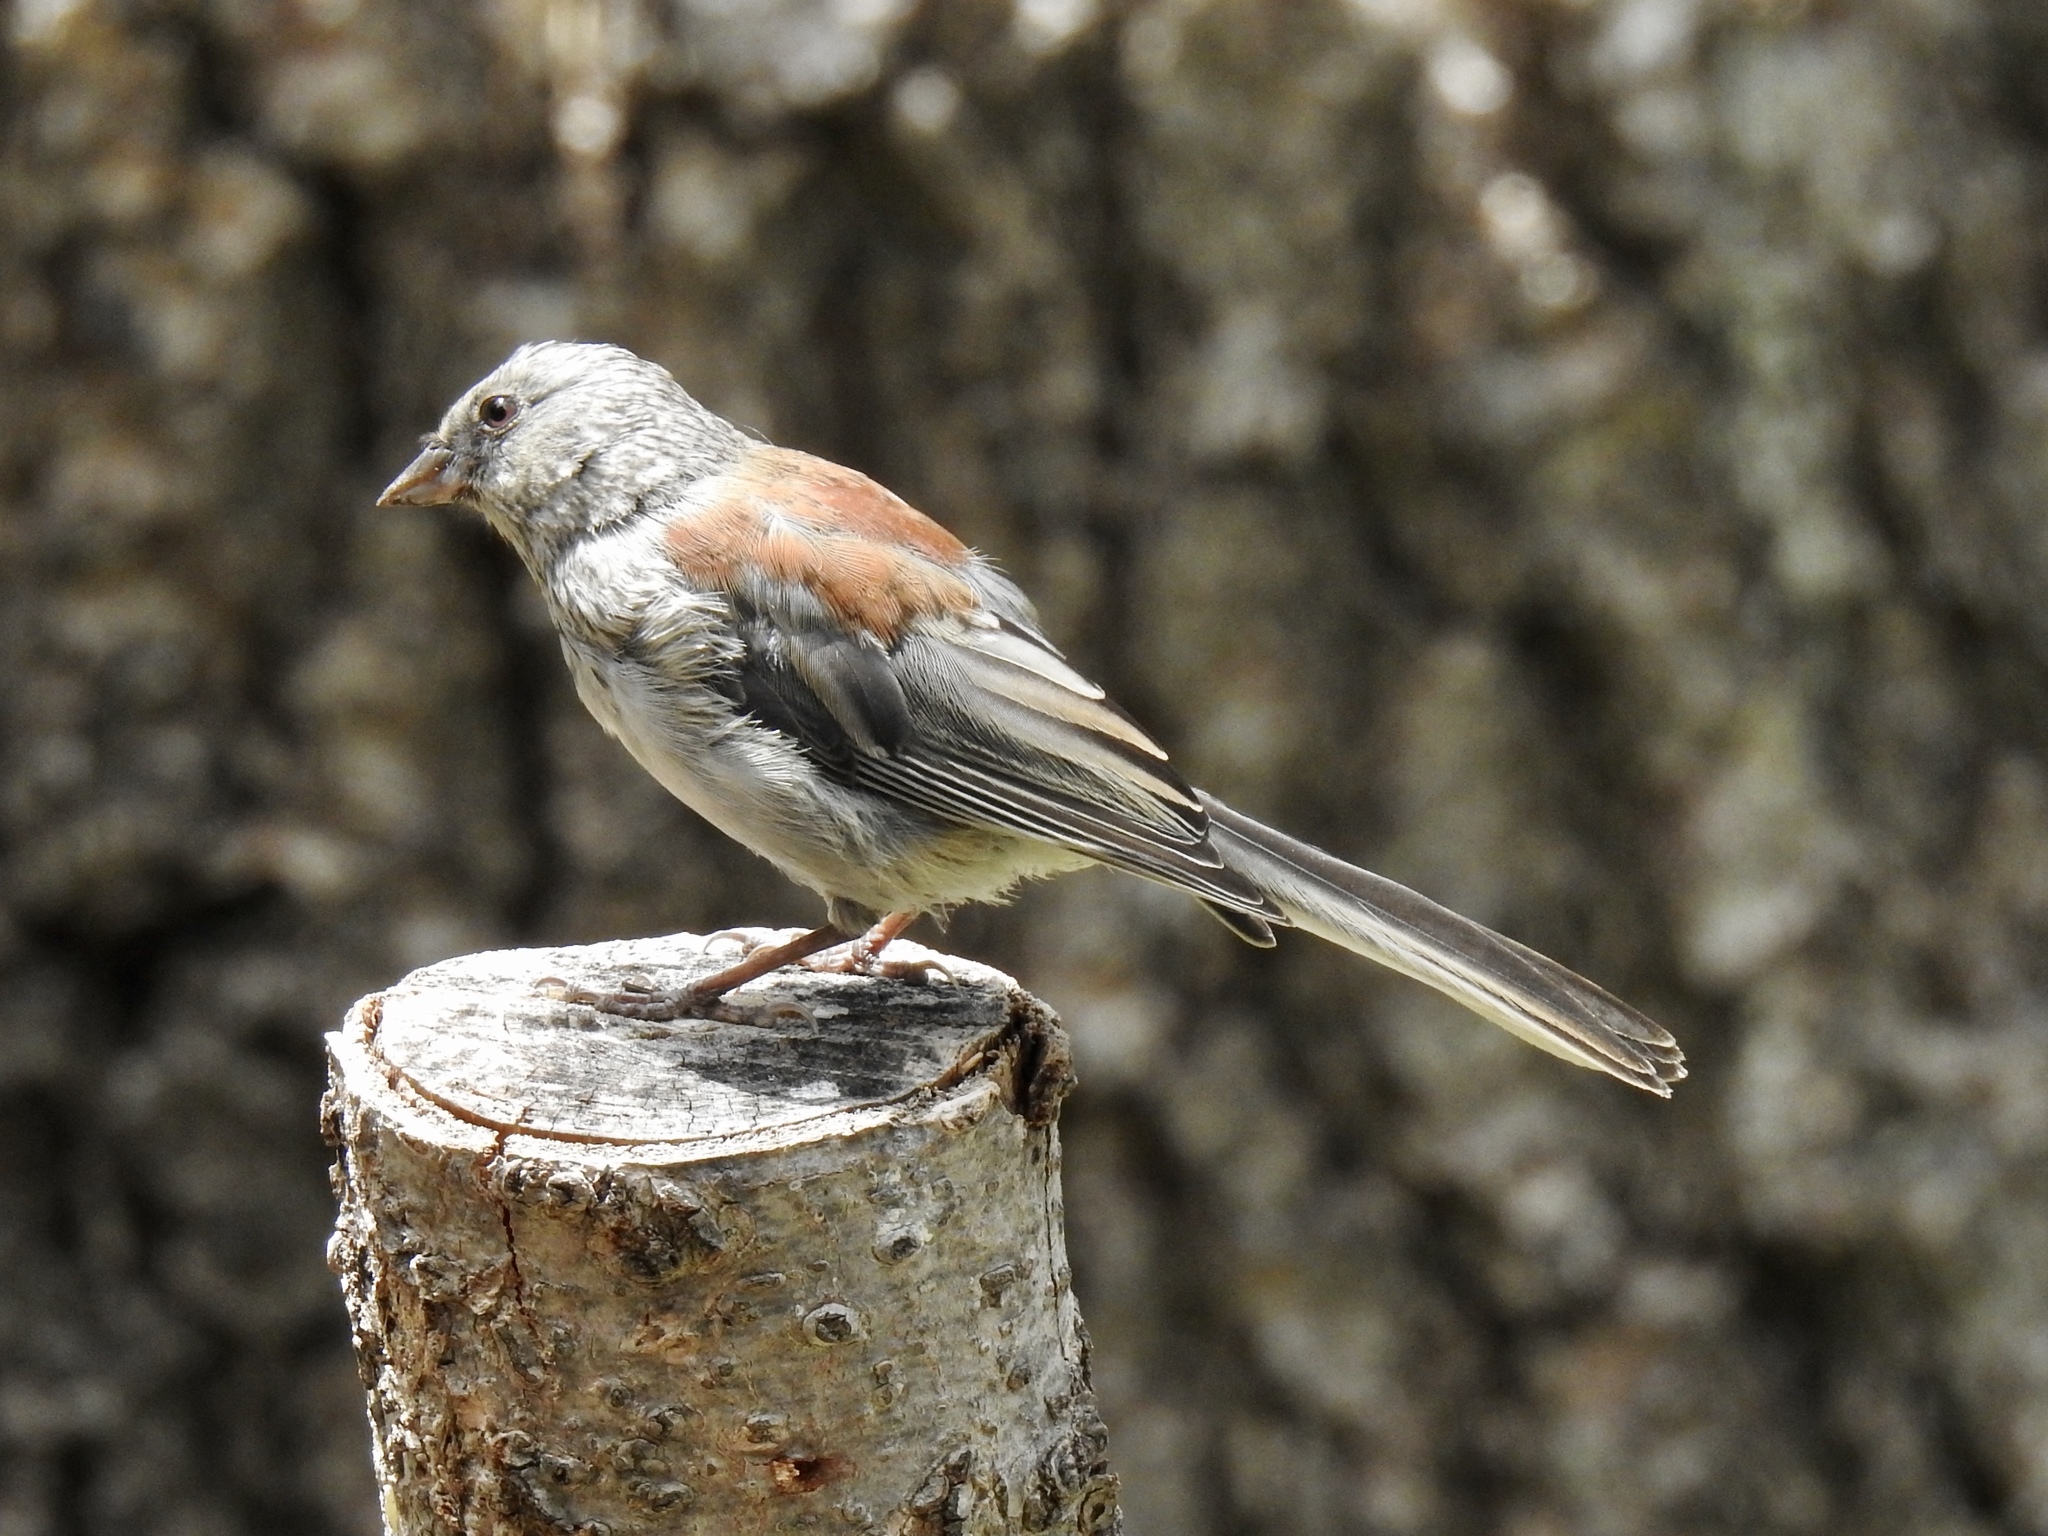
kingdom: Animalia
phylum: Chordata
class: Aves
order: Passeriformes
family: Passerellidae
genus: Junco
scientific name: Junco hyemalis
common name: Dark-eyed junco
